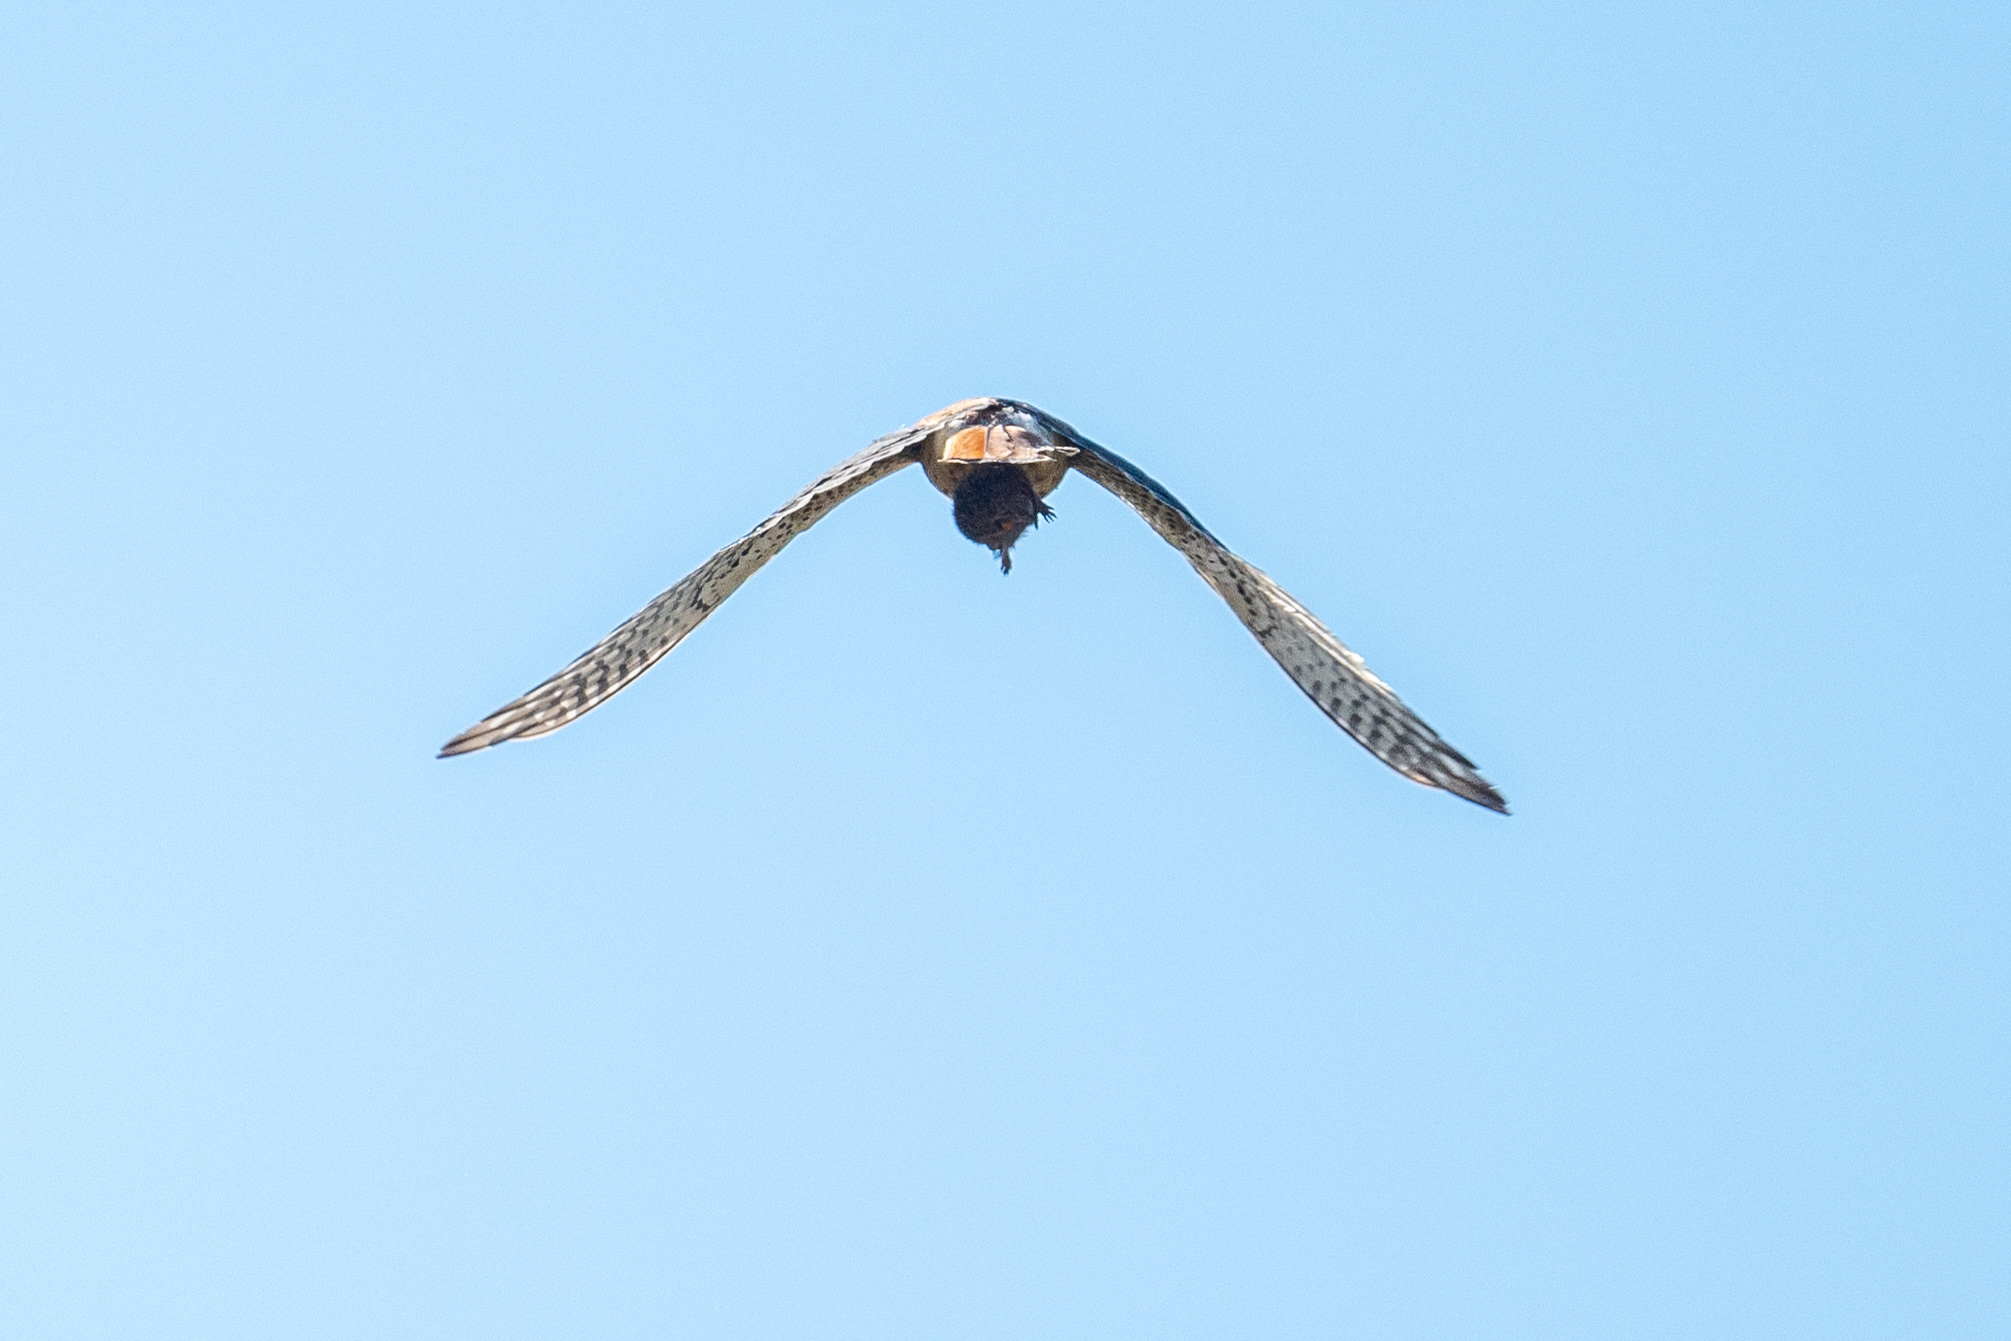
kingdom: Animalia
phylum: Chordata
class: Aves
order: Falconiformes
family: Falconidae
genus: Falco
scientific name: Falco sparverius
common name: American kestrel
